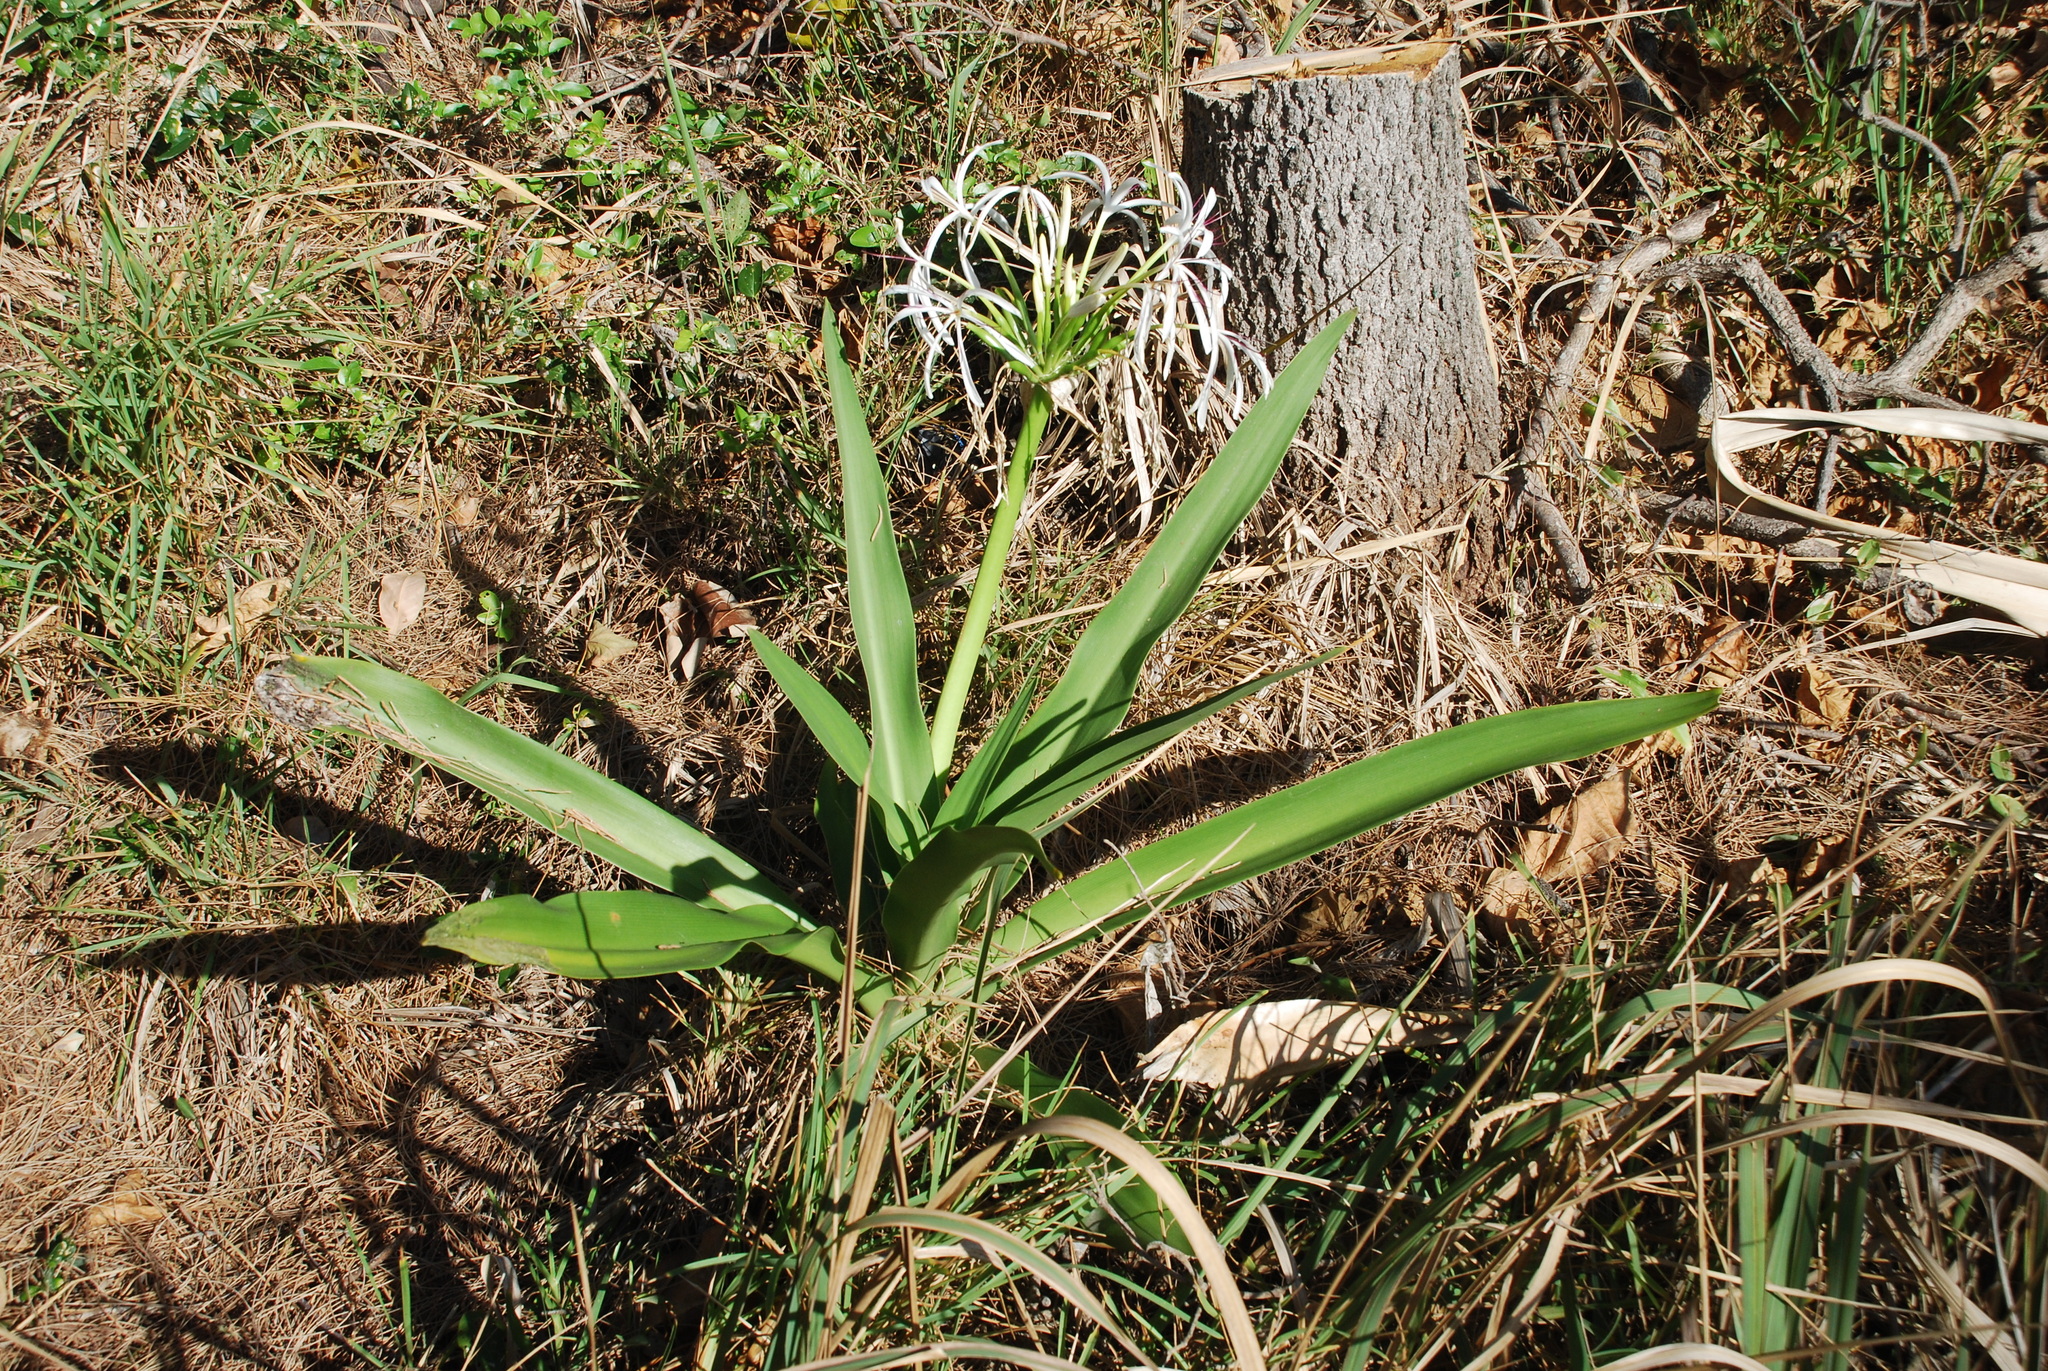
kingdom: Plantae
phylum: Tracheophyta
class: Liliopsida
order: Asparagales
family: Amaryllidaceae
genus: Crinum
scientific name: Crinum pedunculatum
